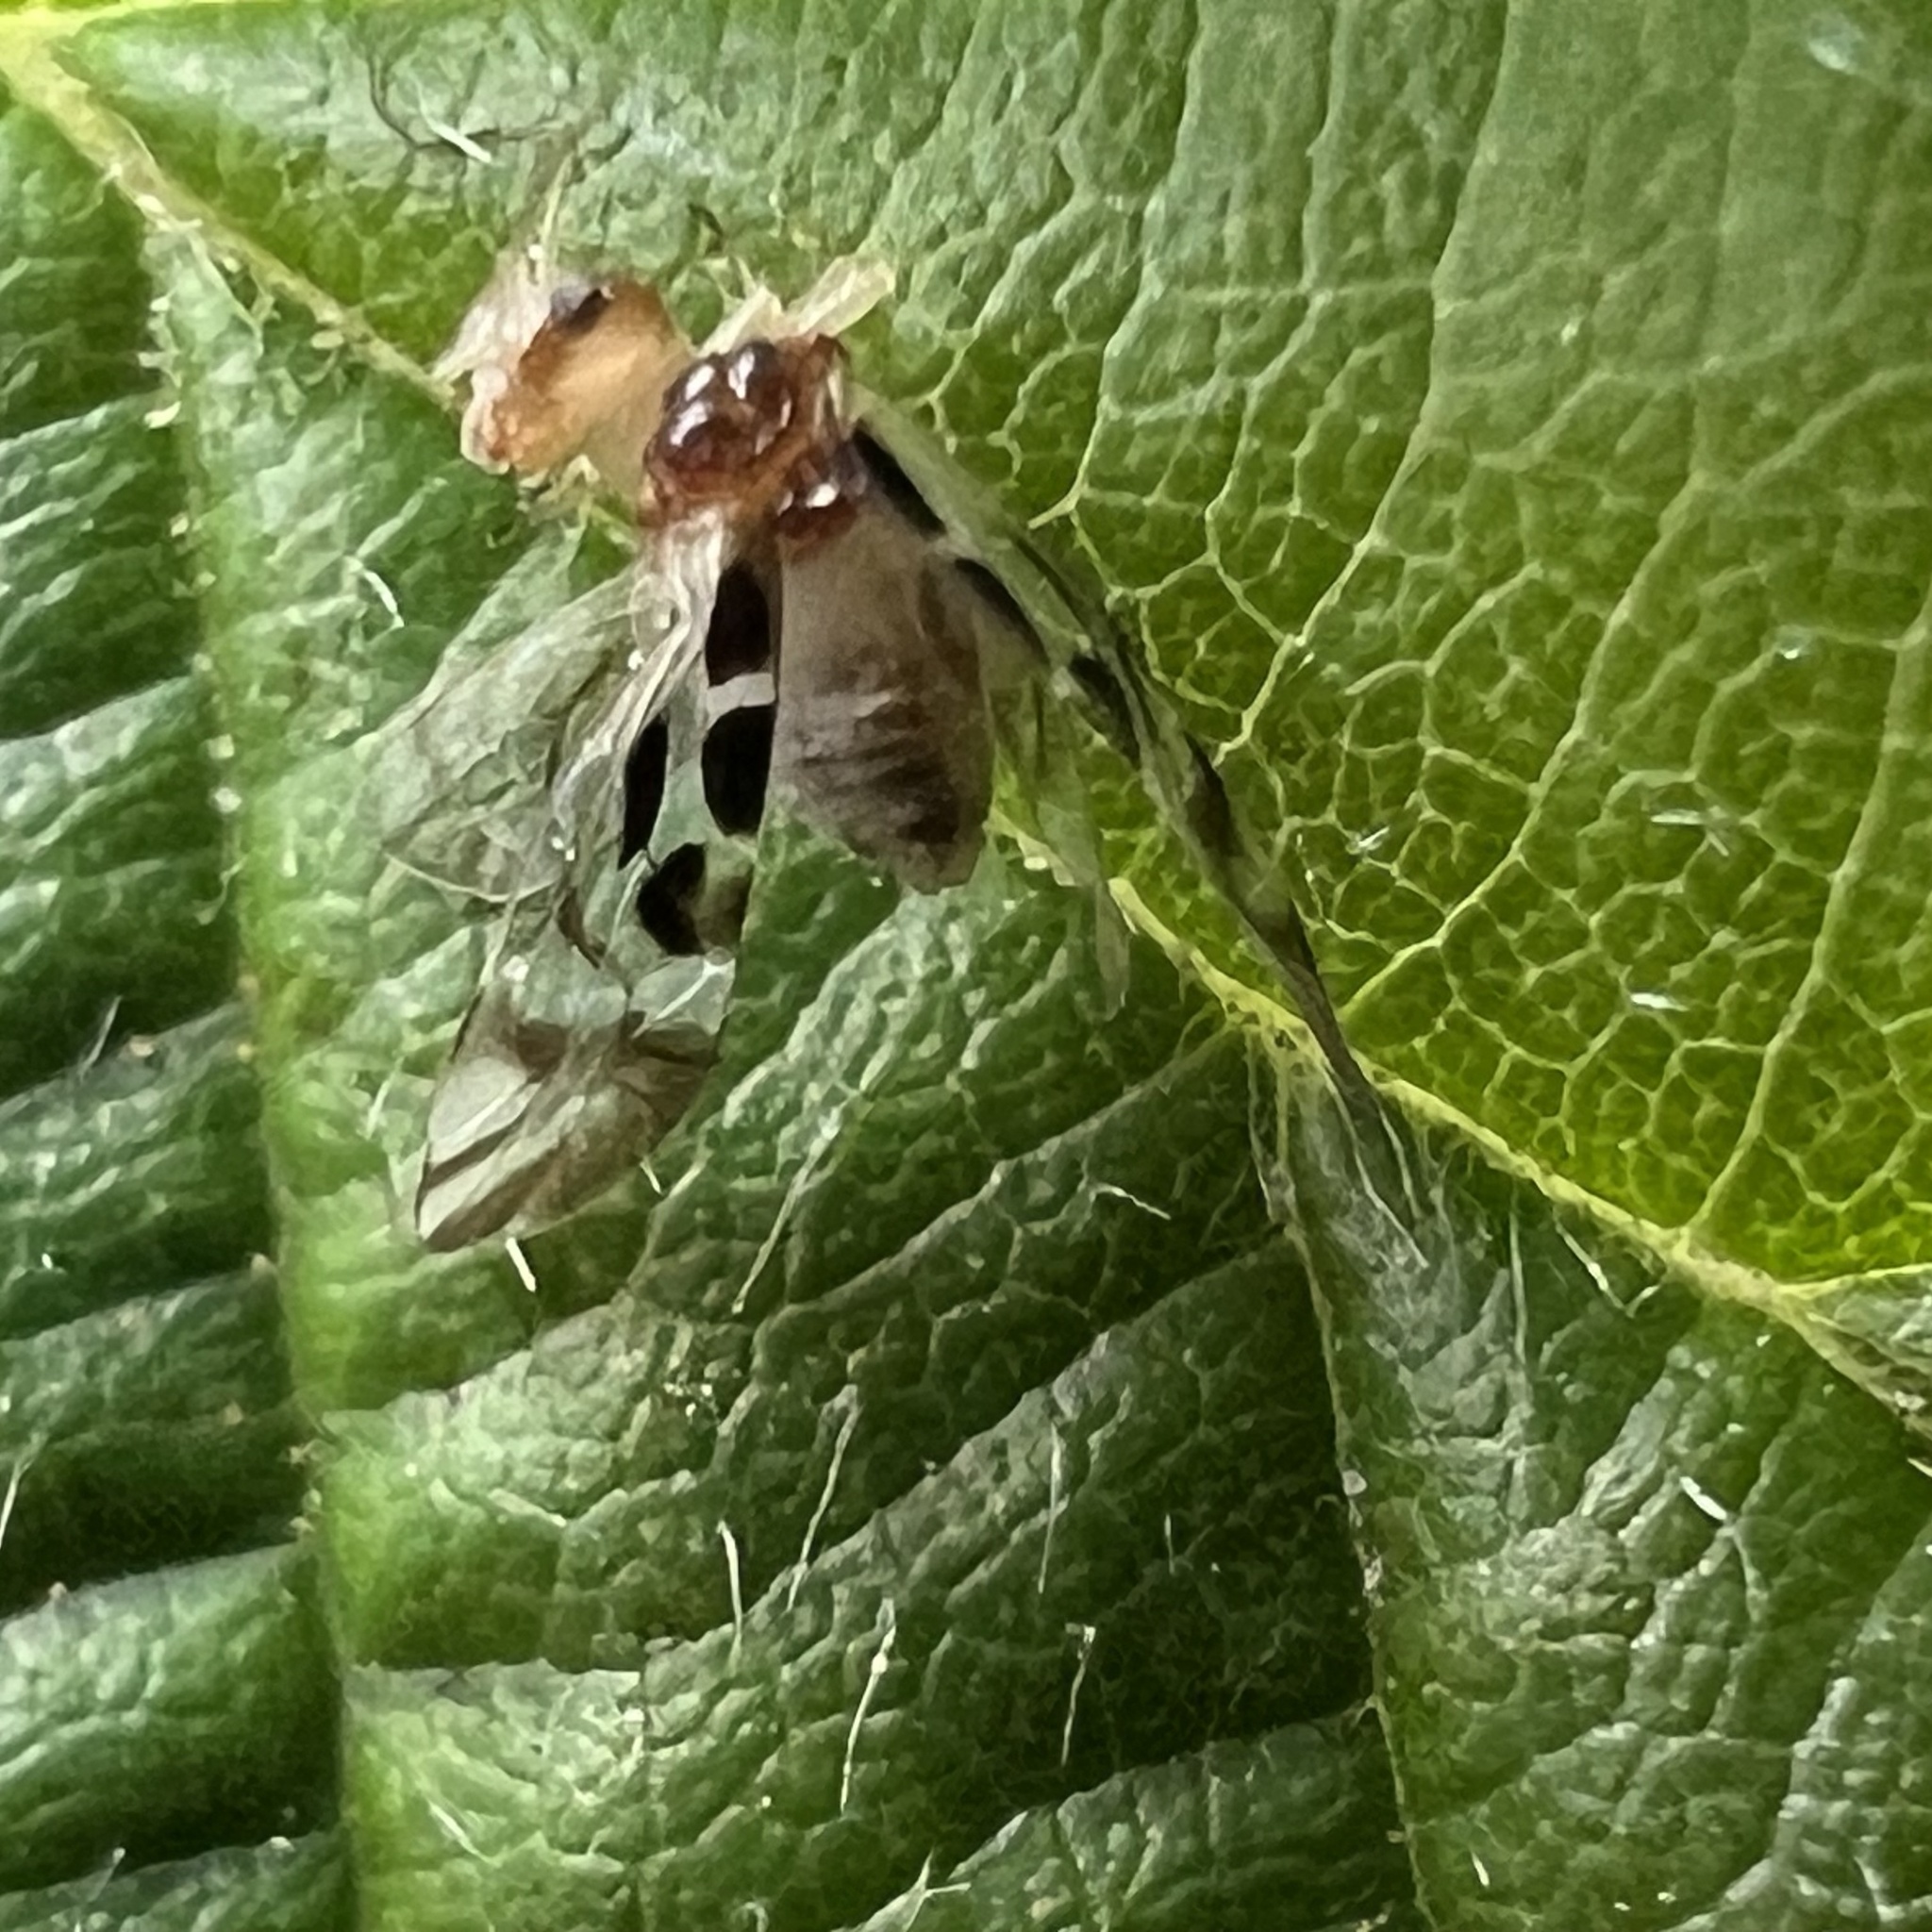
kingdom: Animalia
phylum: Arthropoda
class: Insecta
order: Psocodea
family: Stenopsocidae
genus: Graphopsocus
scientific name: Graphopsocus cruciatus
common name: Lizard bark louse
